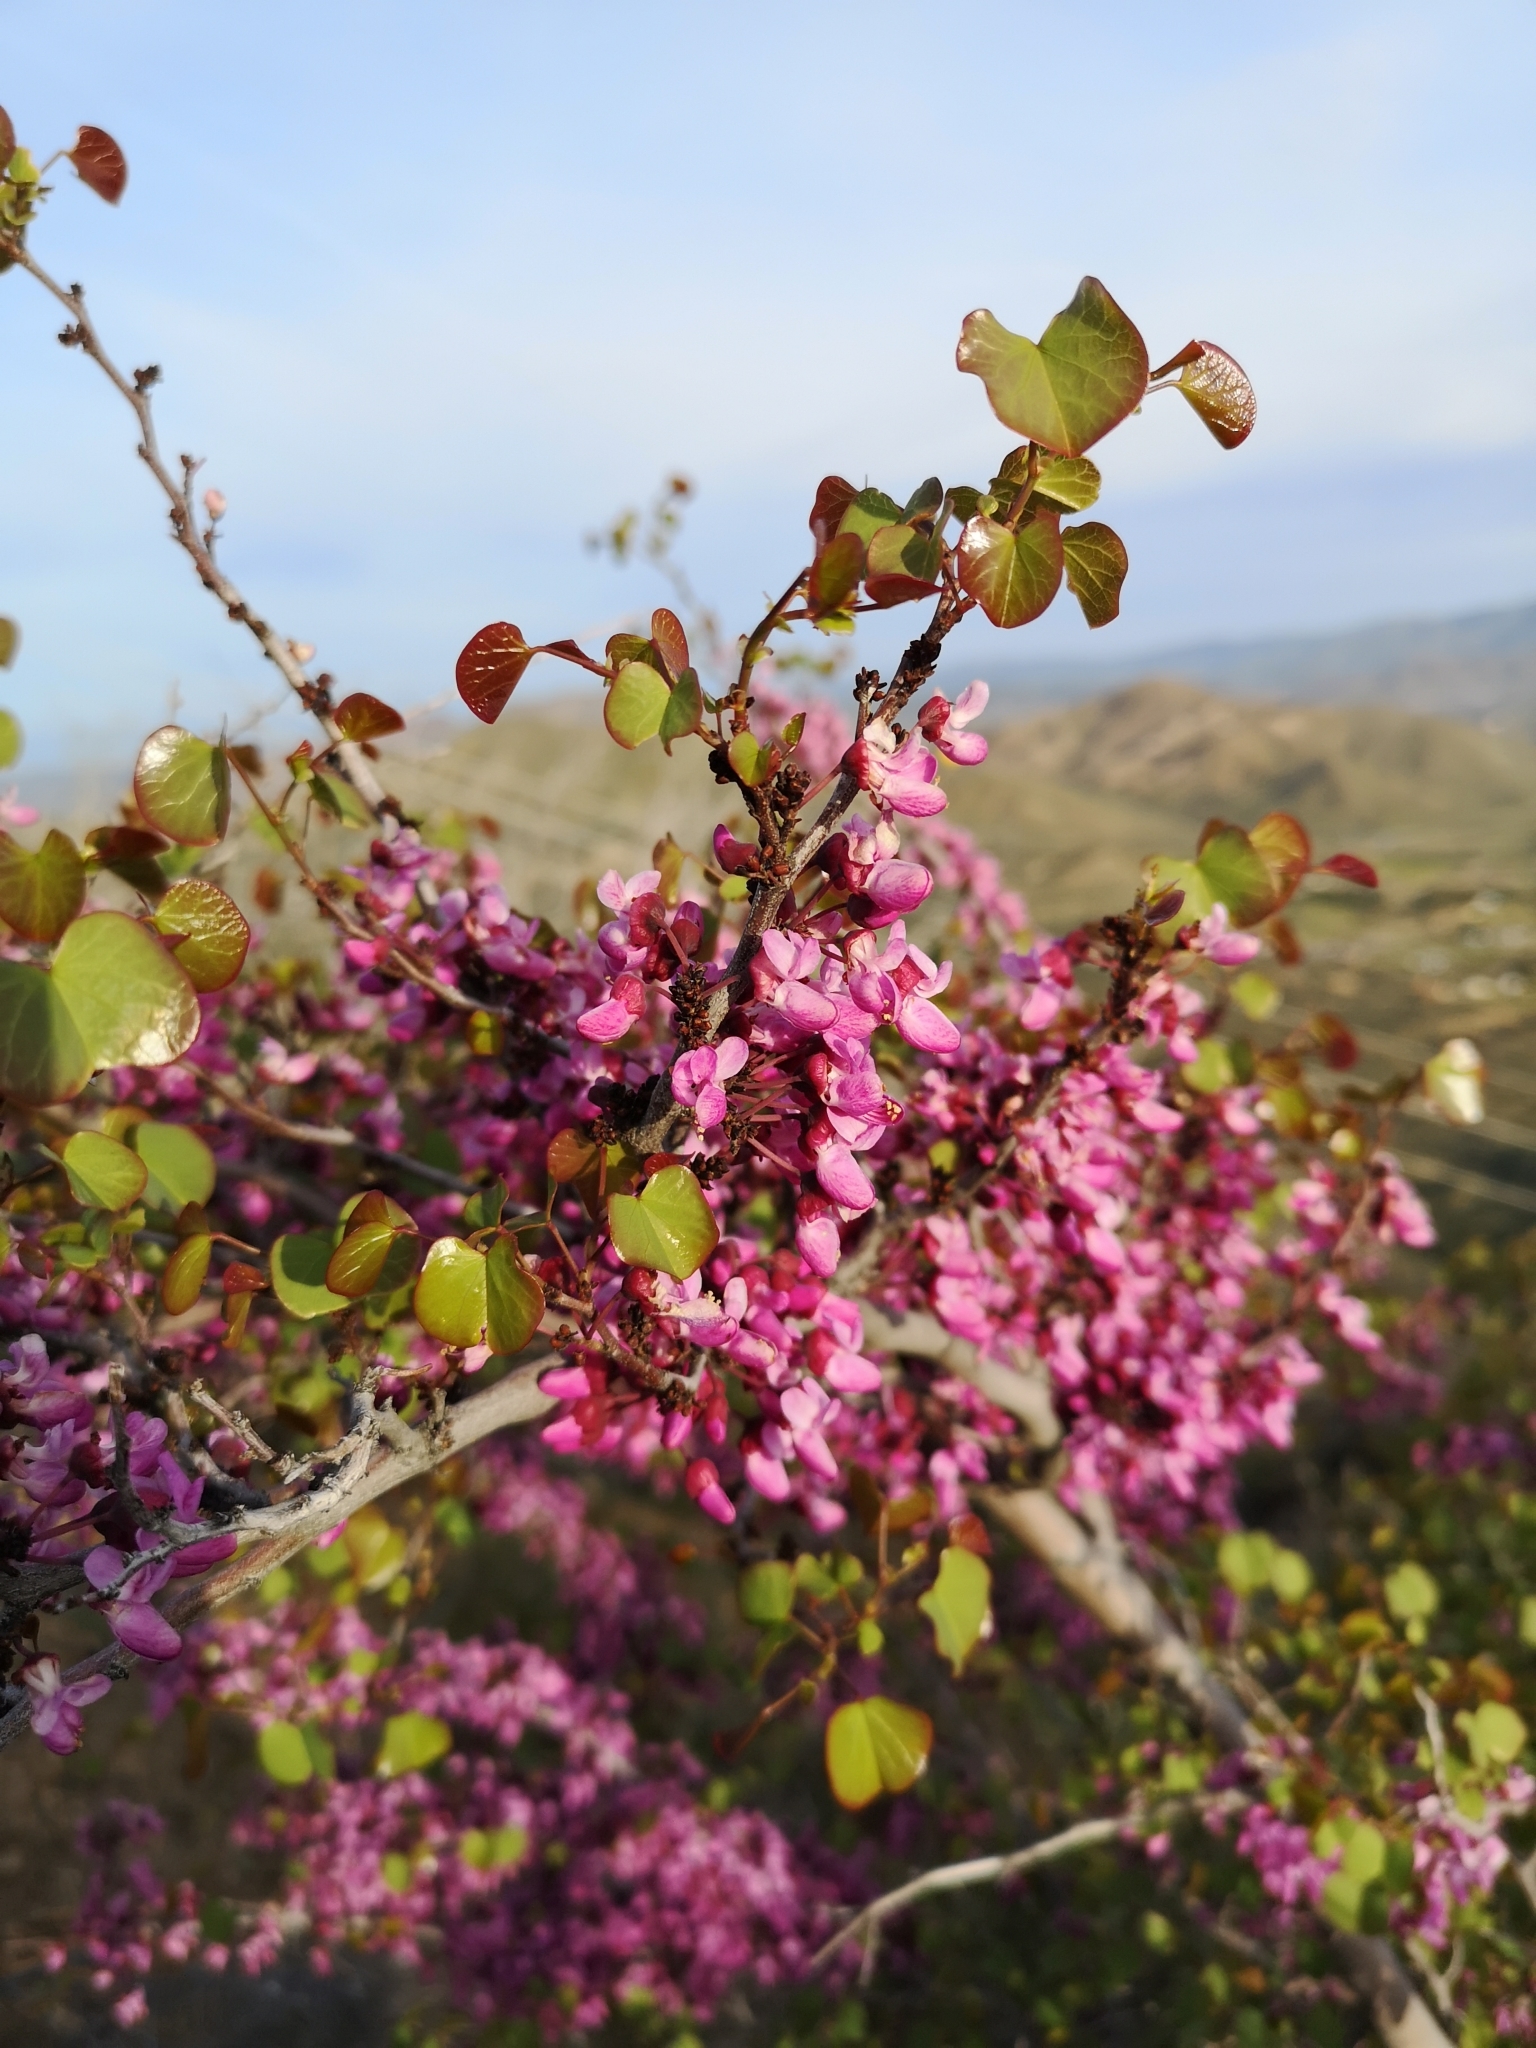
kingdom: Plantae
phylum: Tracheophyta
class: Magnoliopsida
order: Fabales
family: Fabaceae
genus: Cercis
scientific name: Cercis occidentalis
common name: California redbud
